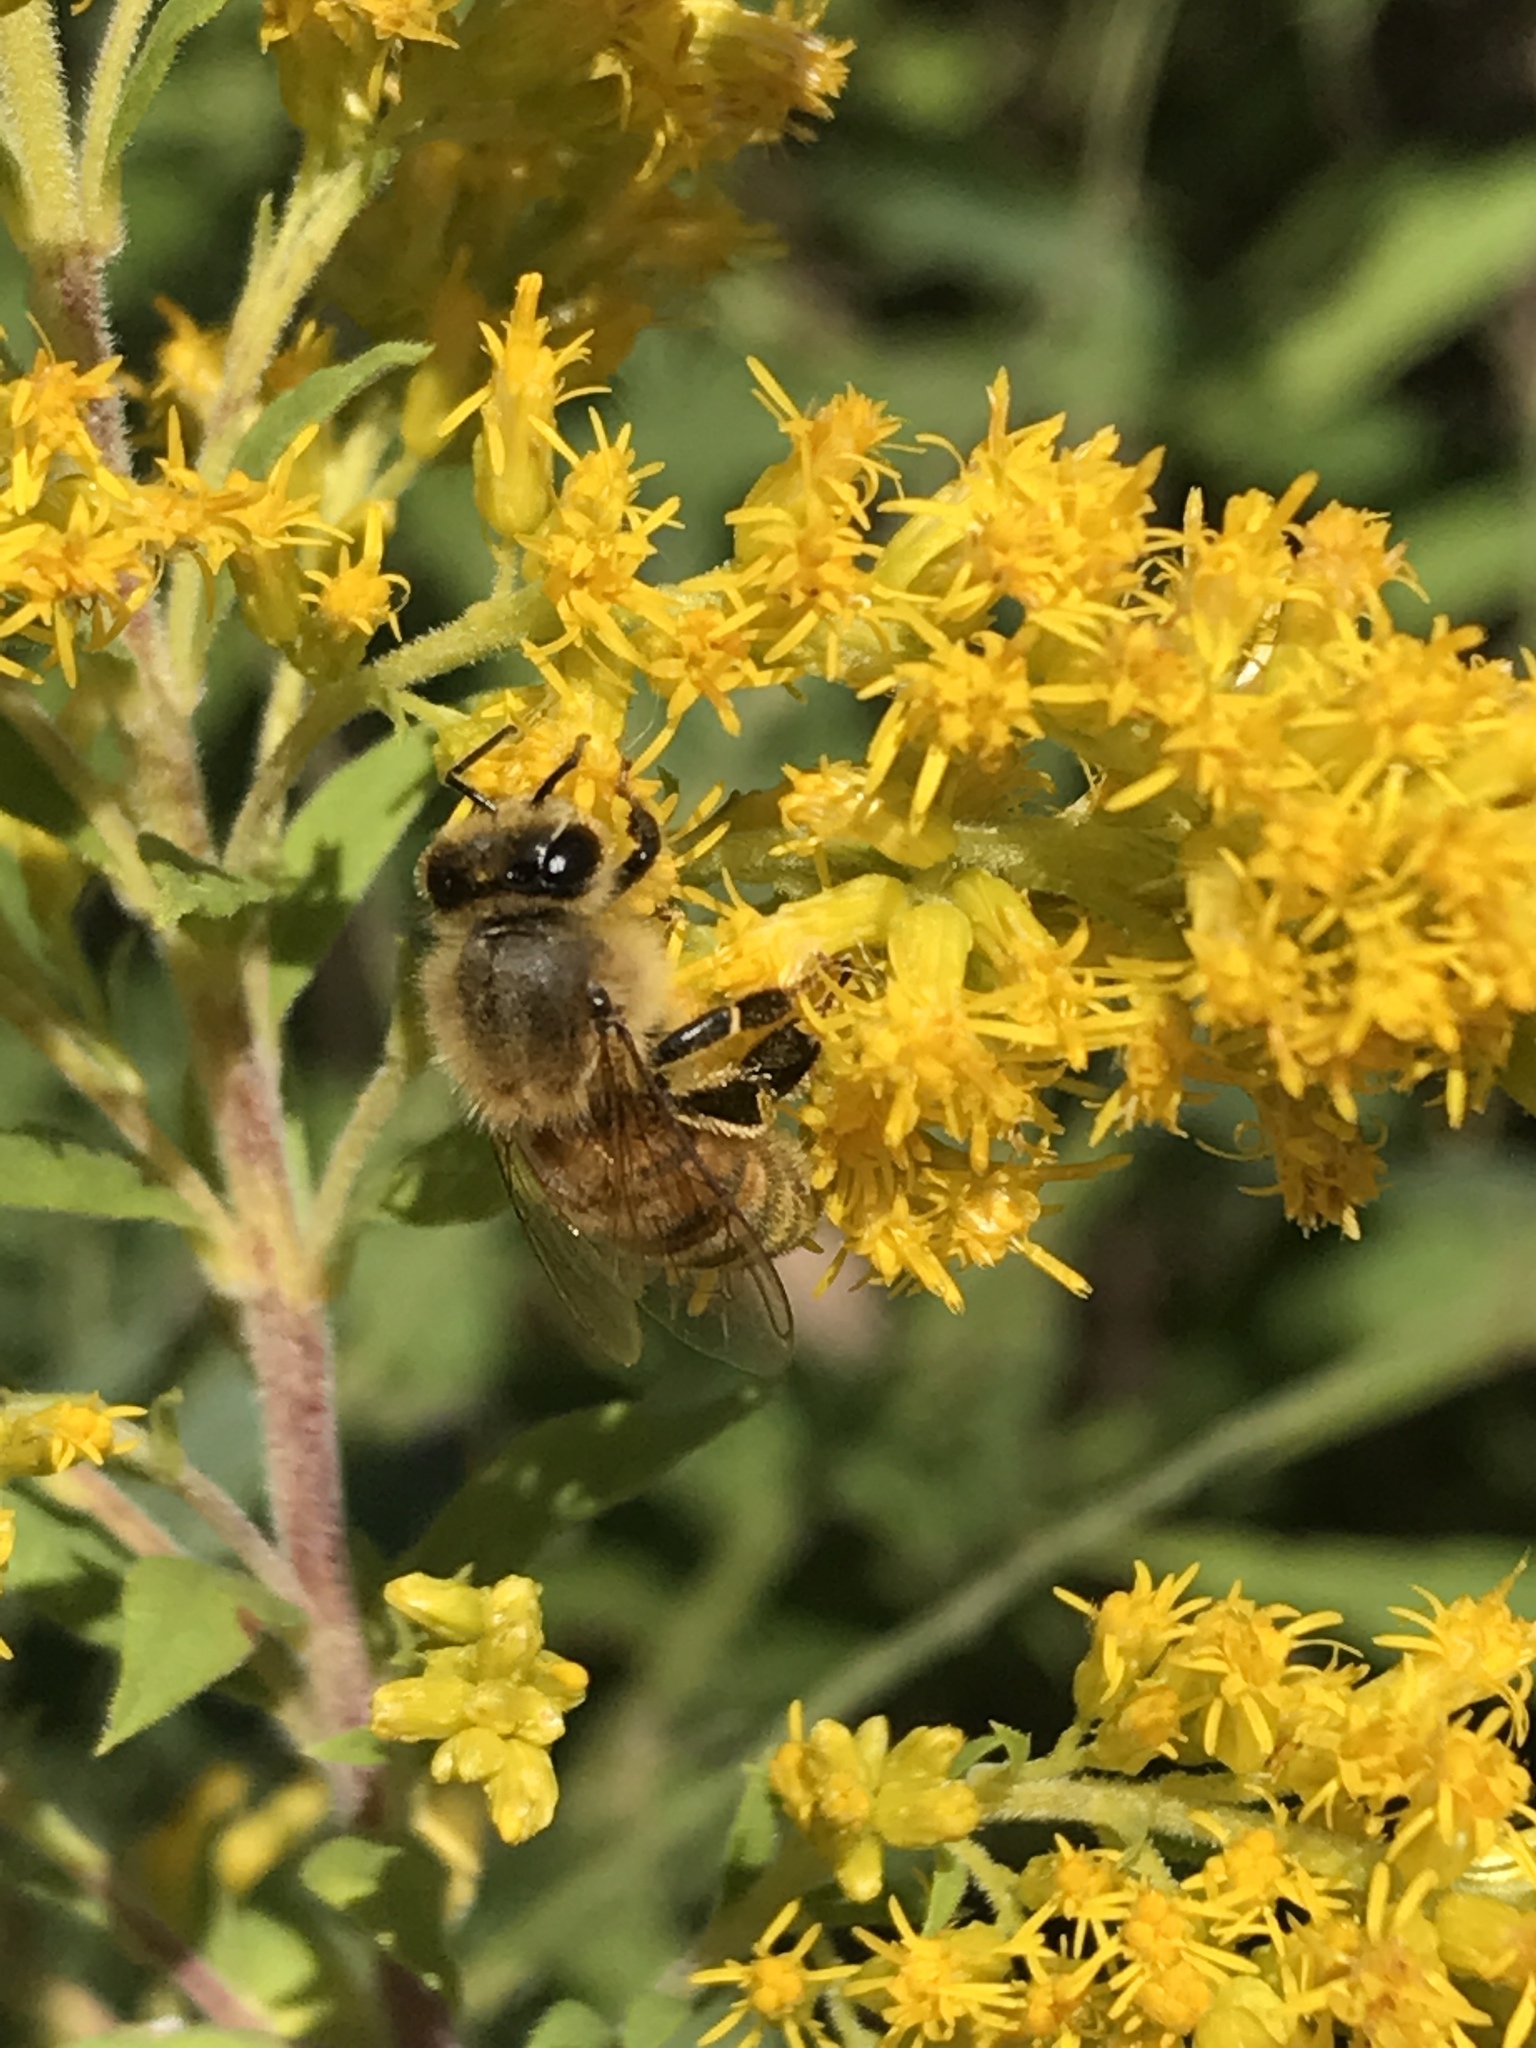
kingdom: Animalia
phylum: Arthropoda
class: Insecta
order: Hymenoptera
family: Apidae
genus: Apis
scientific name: Apis mellifera
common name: Honey bee
